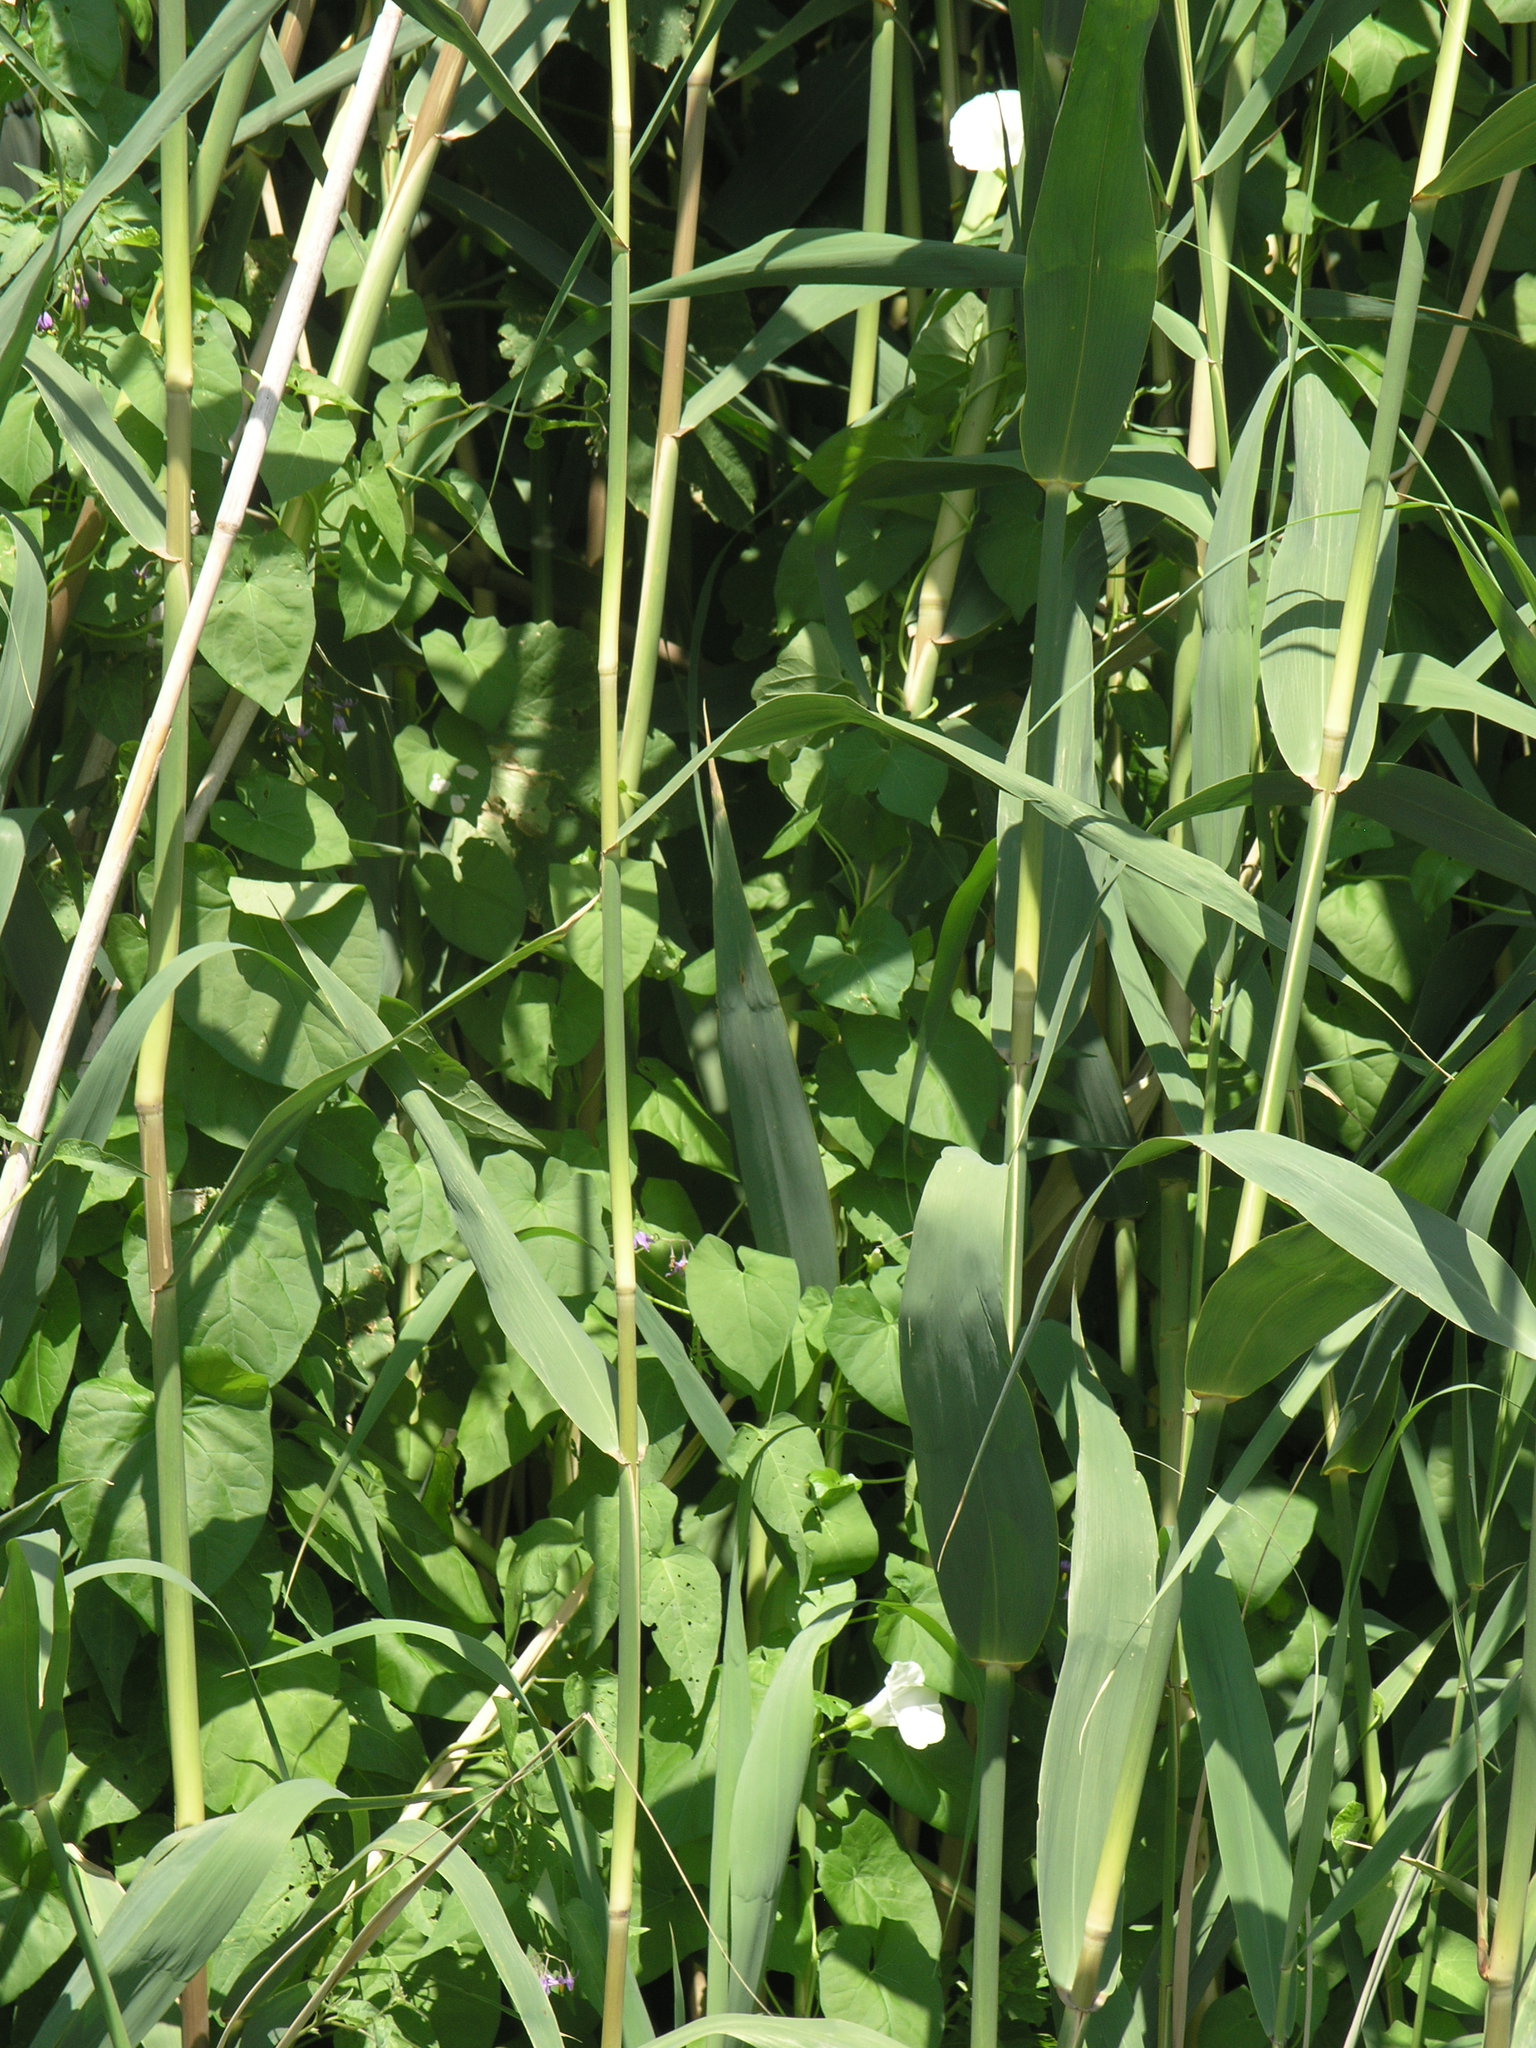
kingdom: Plantae
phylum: Tracheophyta
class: Magnoliopsida
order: Solanales
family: Convolvulaceae
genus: Calystegia
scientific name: Calystegia sepium
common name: Hedge bindweed
